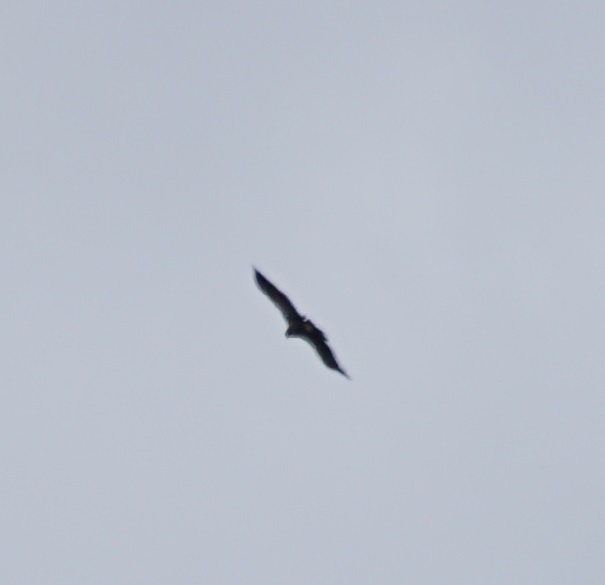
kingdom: Animalia
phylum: Chordata
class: Aves
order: Accipitriformes
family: Accipitridae
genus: Aquila
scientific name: Aquila audax
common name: Wedge-tailed eagle
